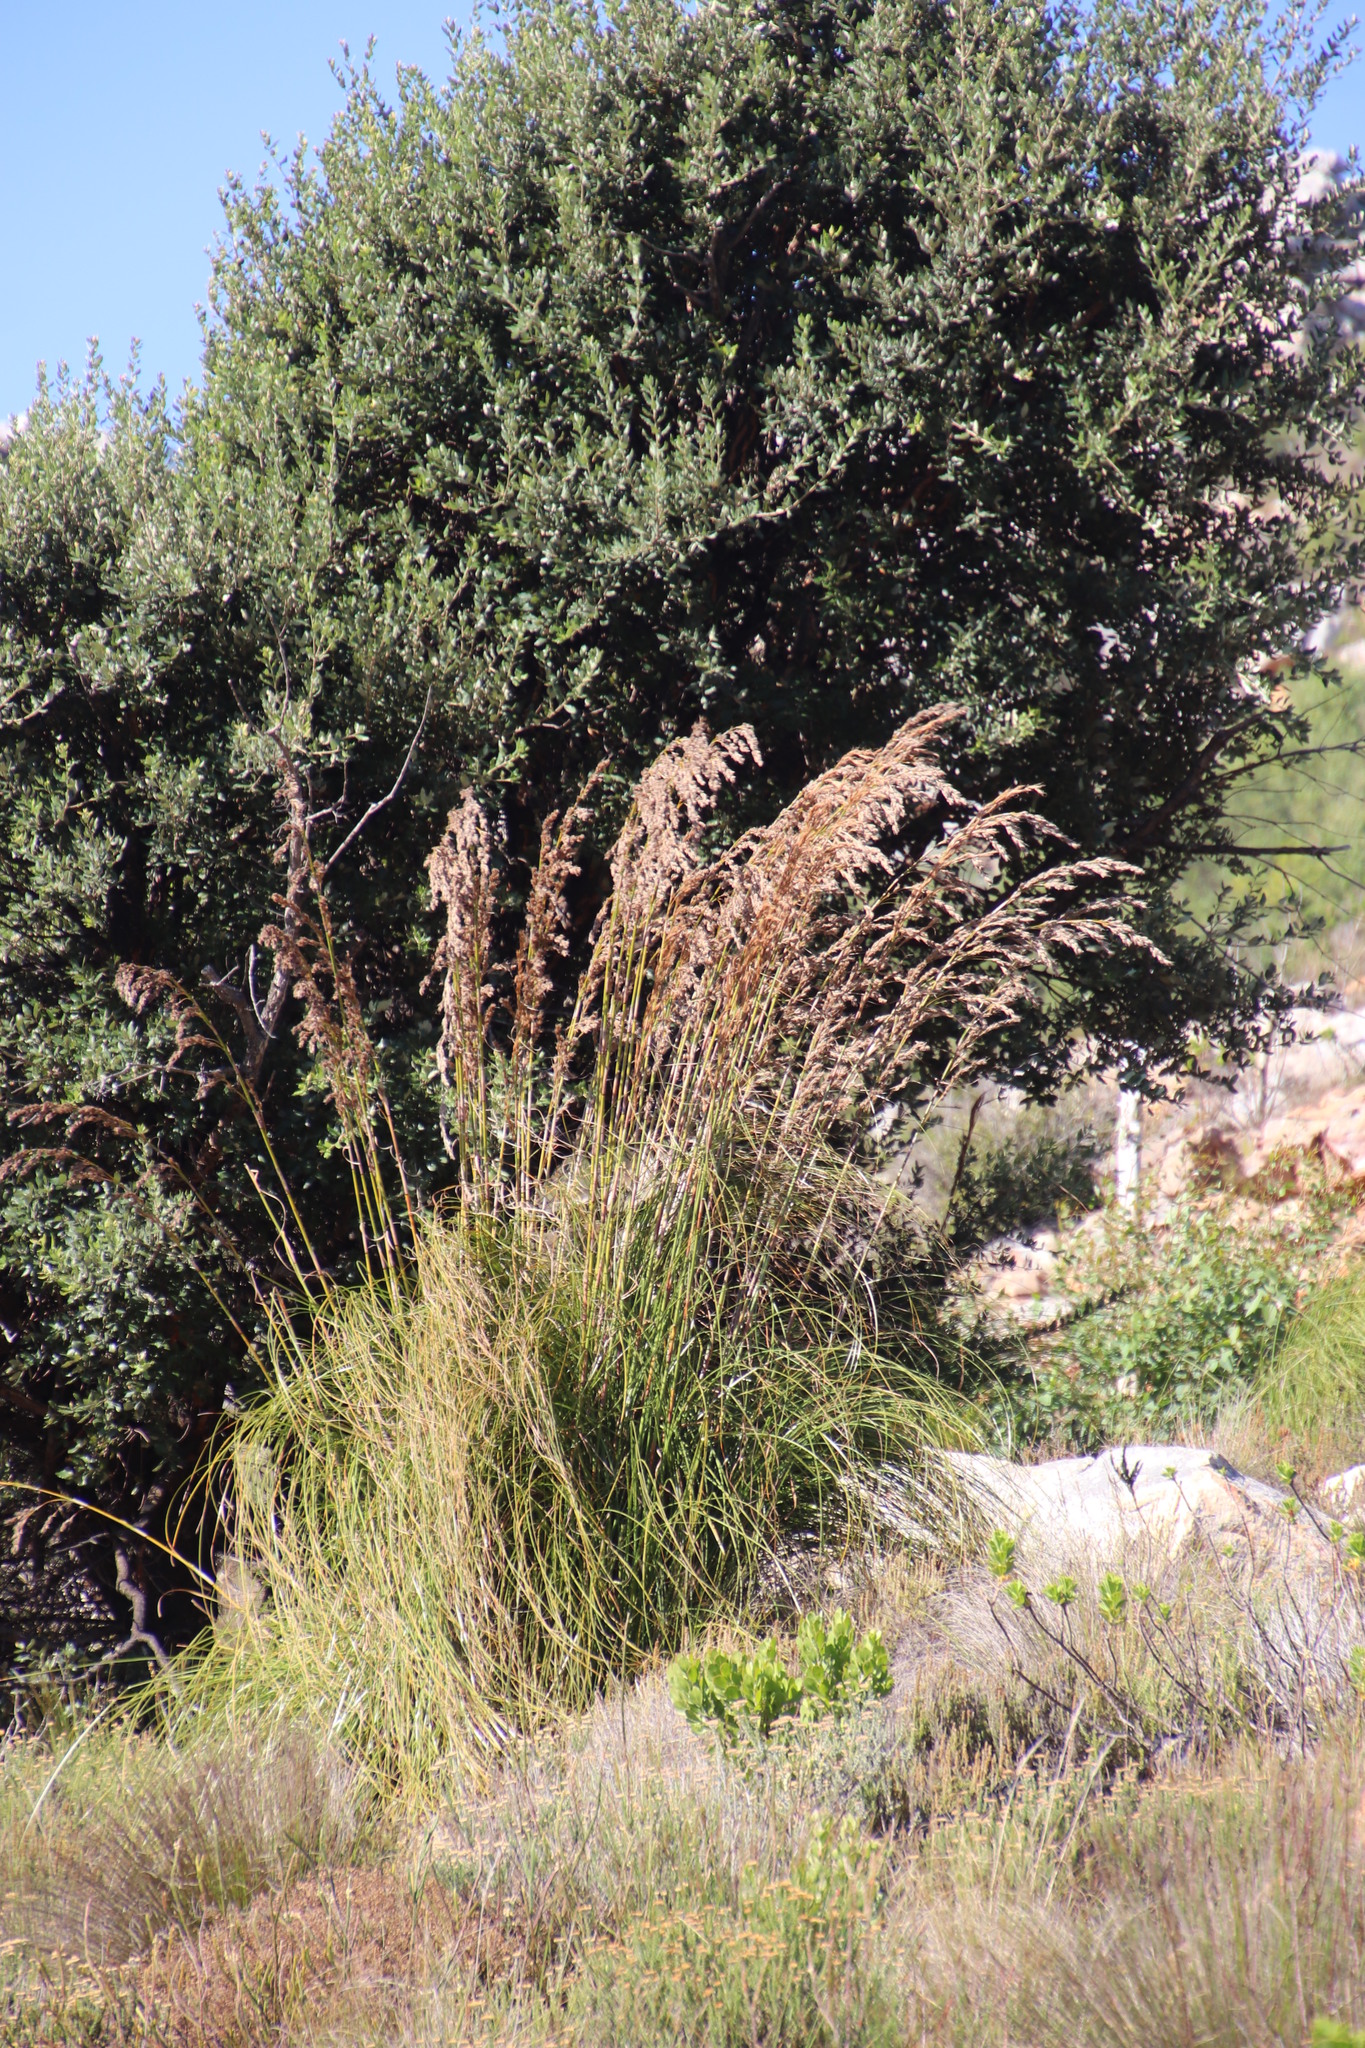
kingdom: Plantae
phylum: Tracheophyta
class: Liliopsida
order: Poales
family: Cyperaceae
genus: Tetraria
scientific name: Tetraria involucrata
